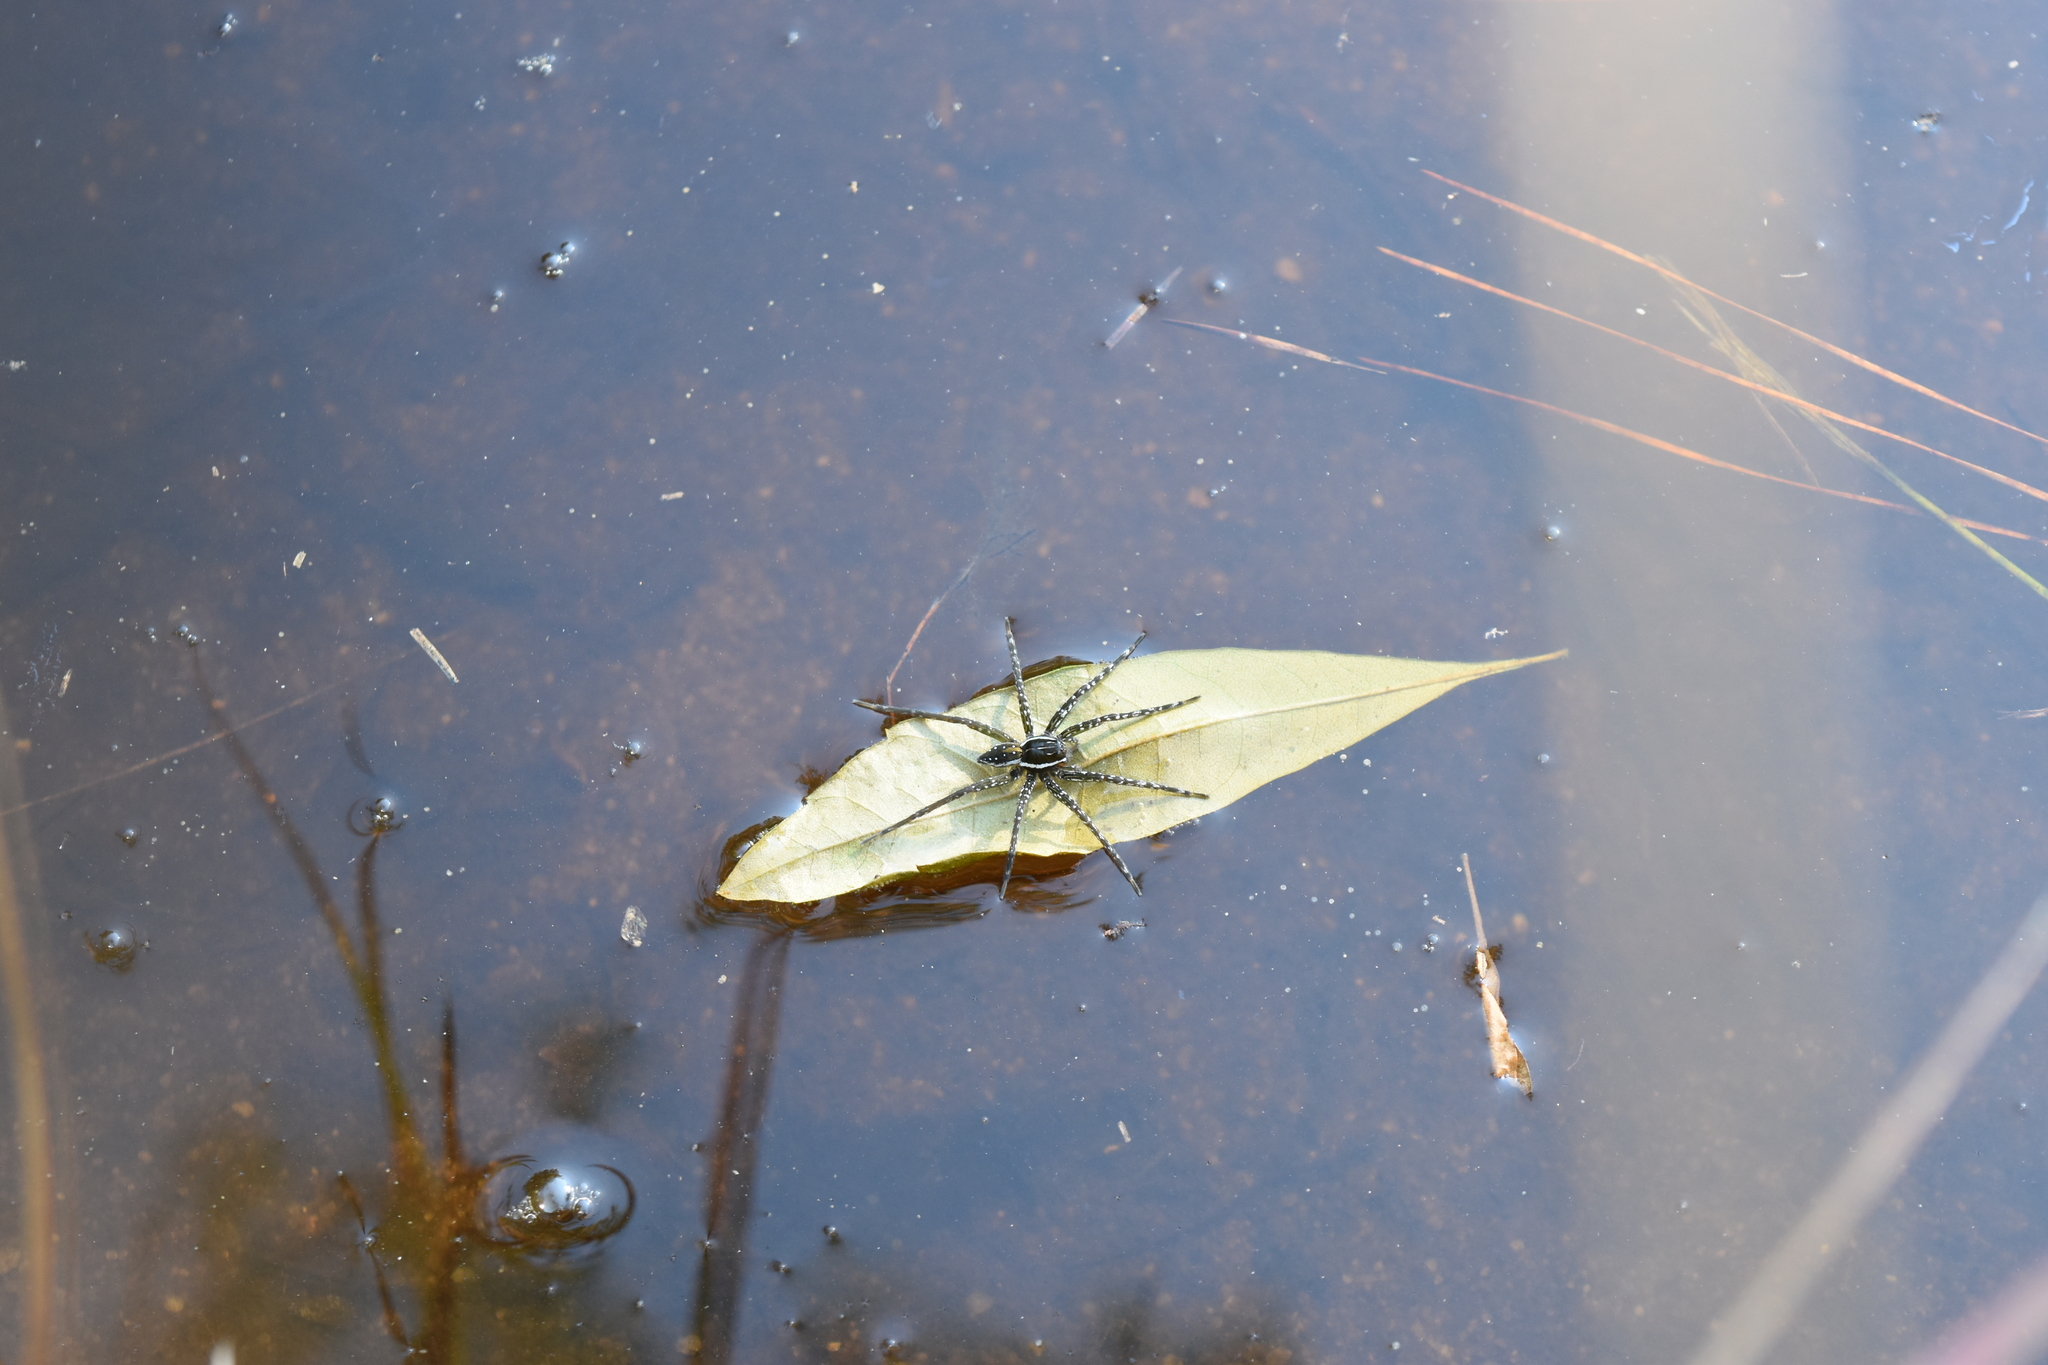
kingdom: Animalia
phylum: Arthropoda
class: Arachnida
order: Araneae
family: Pisauridae
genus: Dolomedes
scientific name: Dolomedes triton
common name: Six-spotted fishing spider
